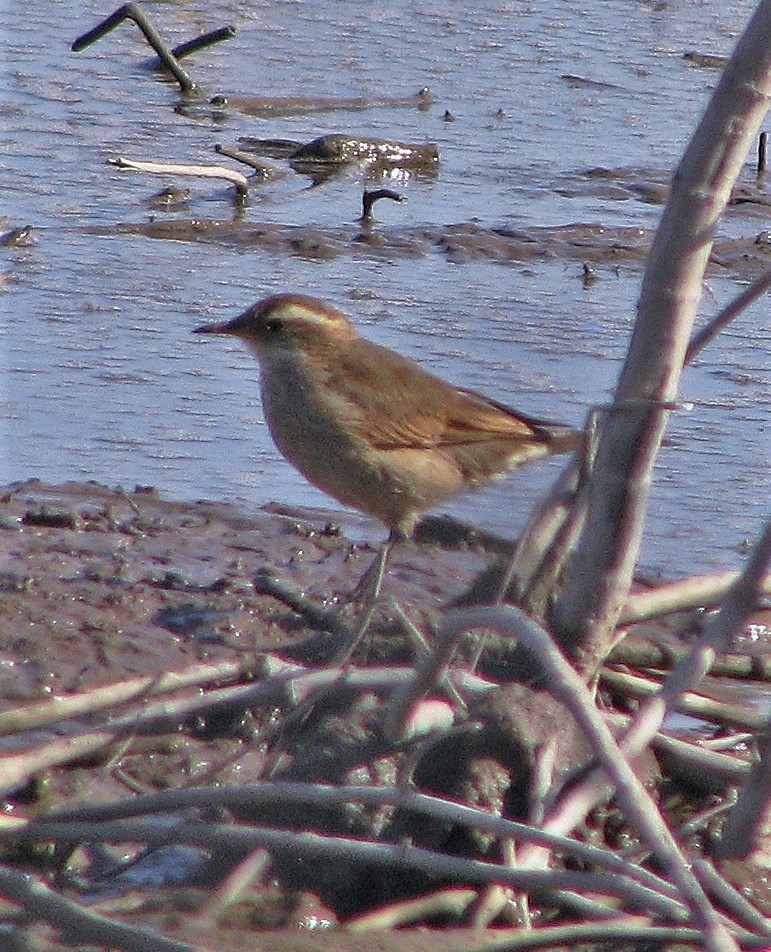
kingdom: Animalia
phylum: Chordata
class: Aves
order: Passeriformes
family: Furnariidae
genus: Cinclodes
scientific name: Cinclodes comechingonus
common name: Cordoba cinclodes
